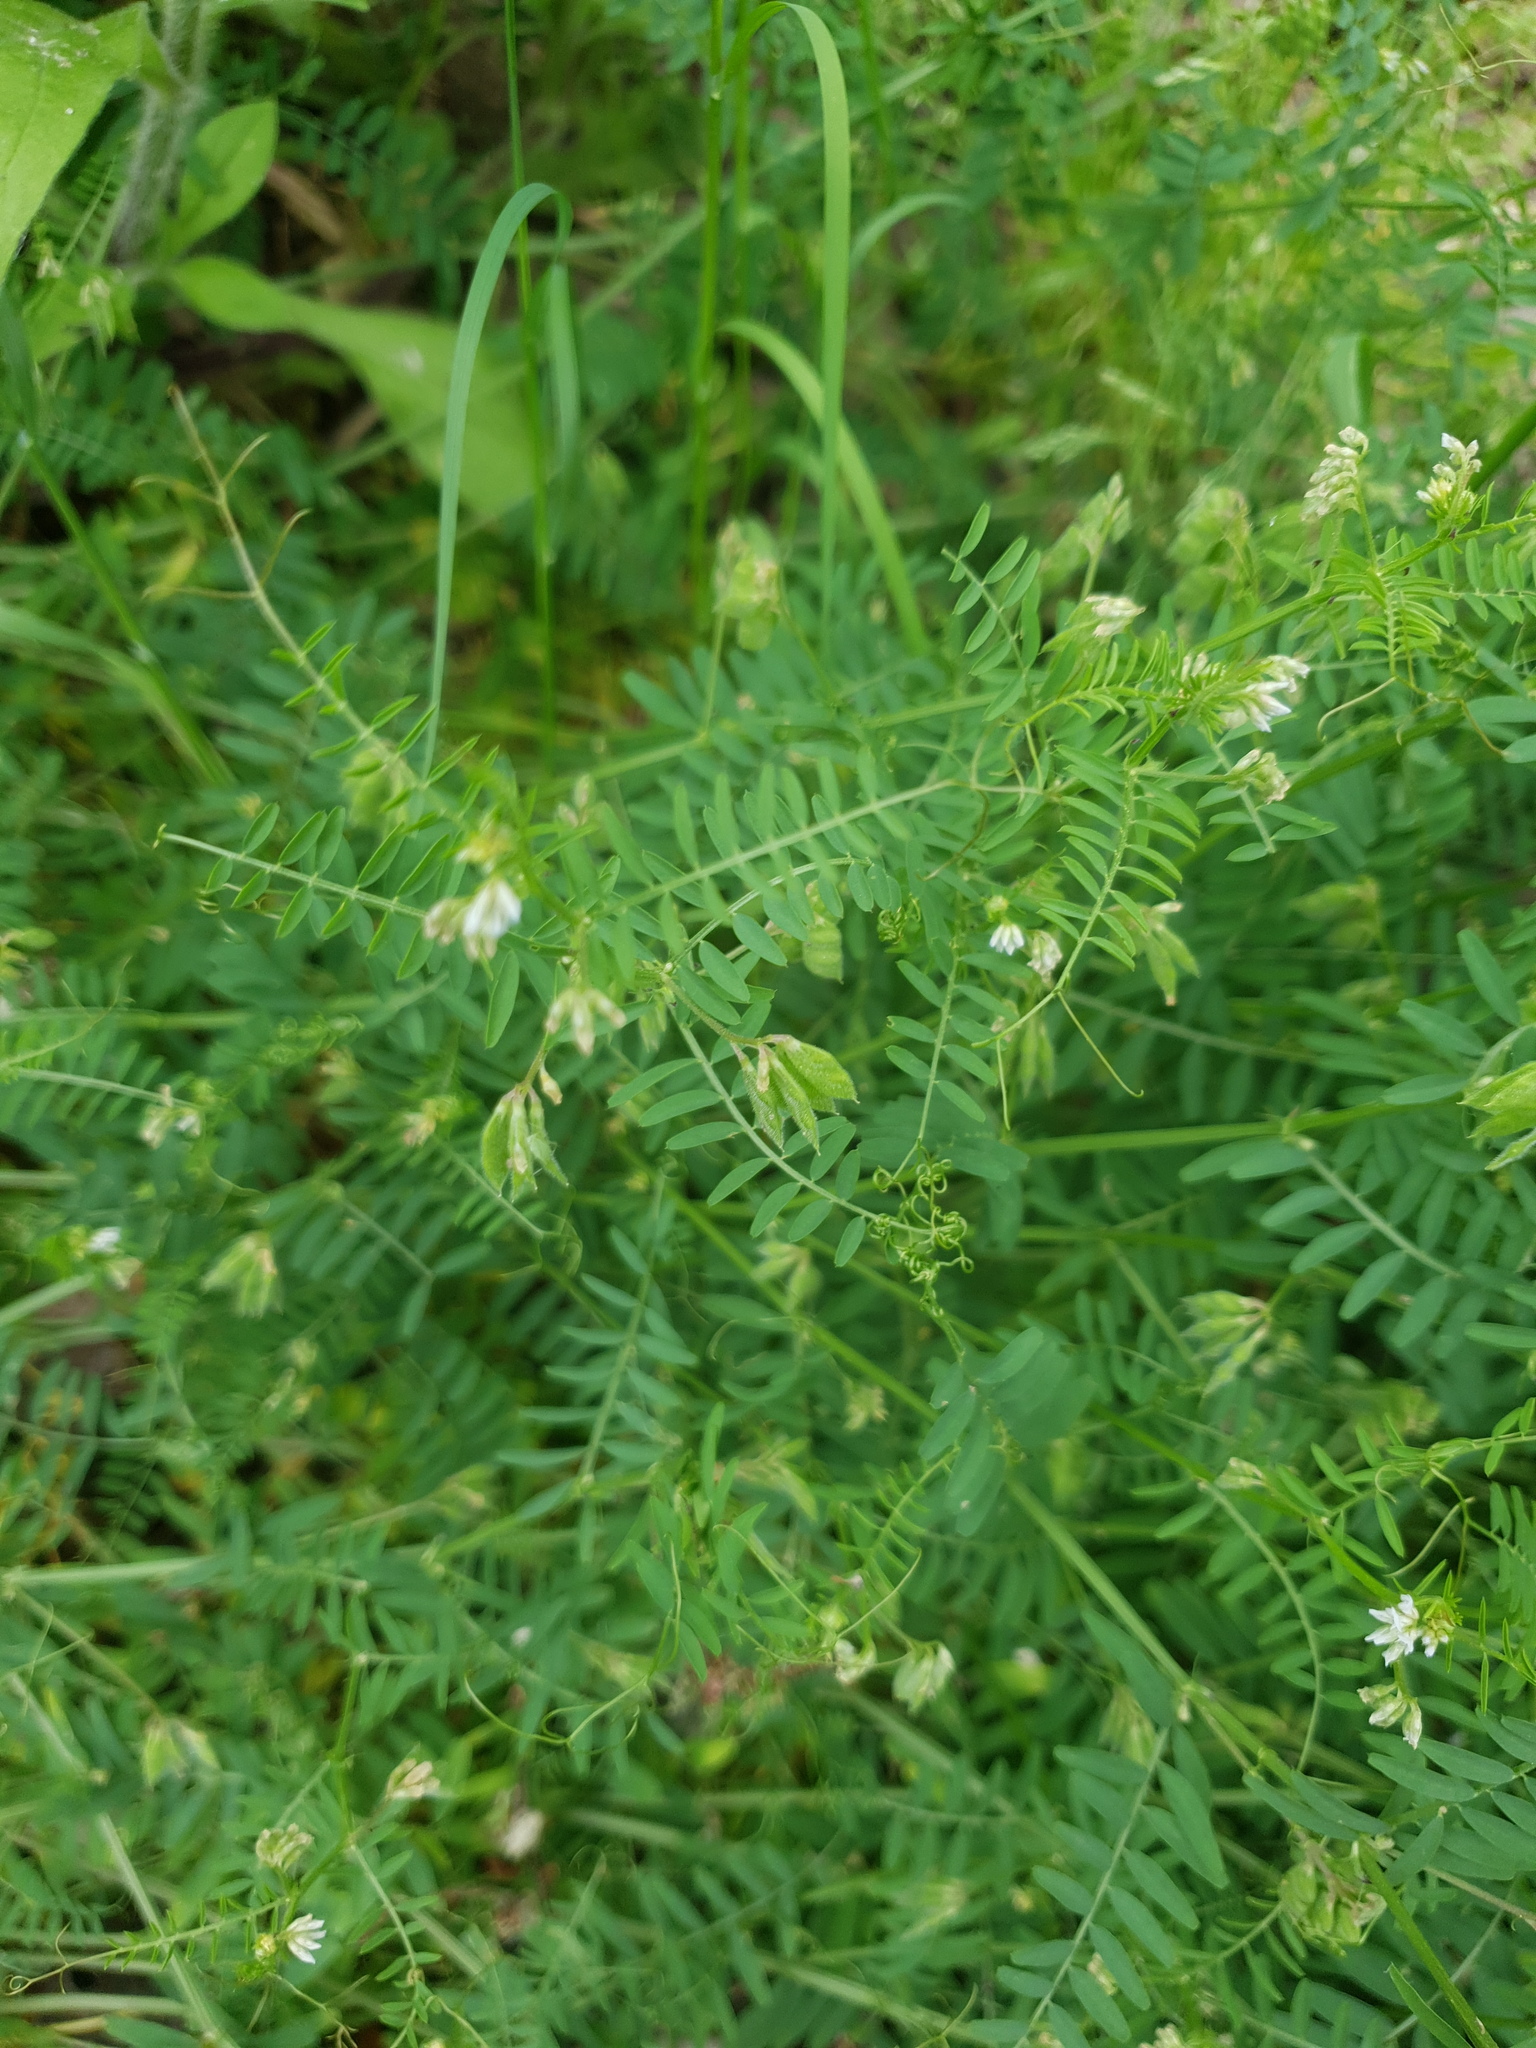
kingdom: Plantae
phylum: Tracheophyta
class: Magnoliopsida
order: Fabales
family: Fabaceae
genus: Vicia
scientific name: Vicia hirsuta
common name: Tiny vetch
